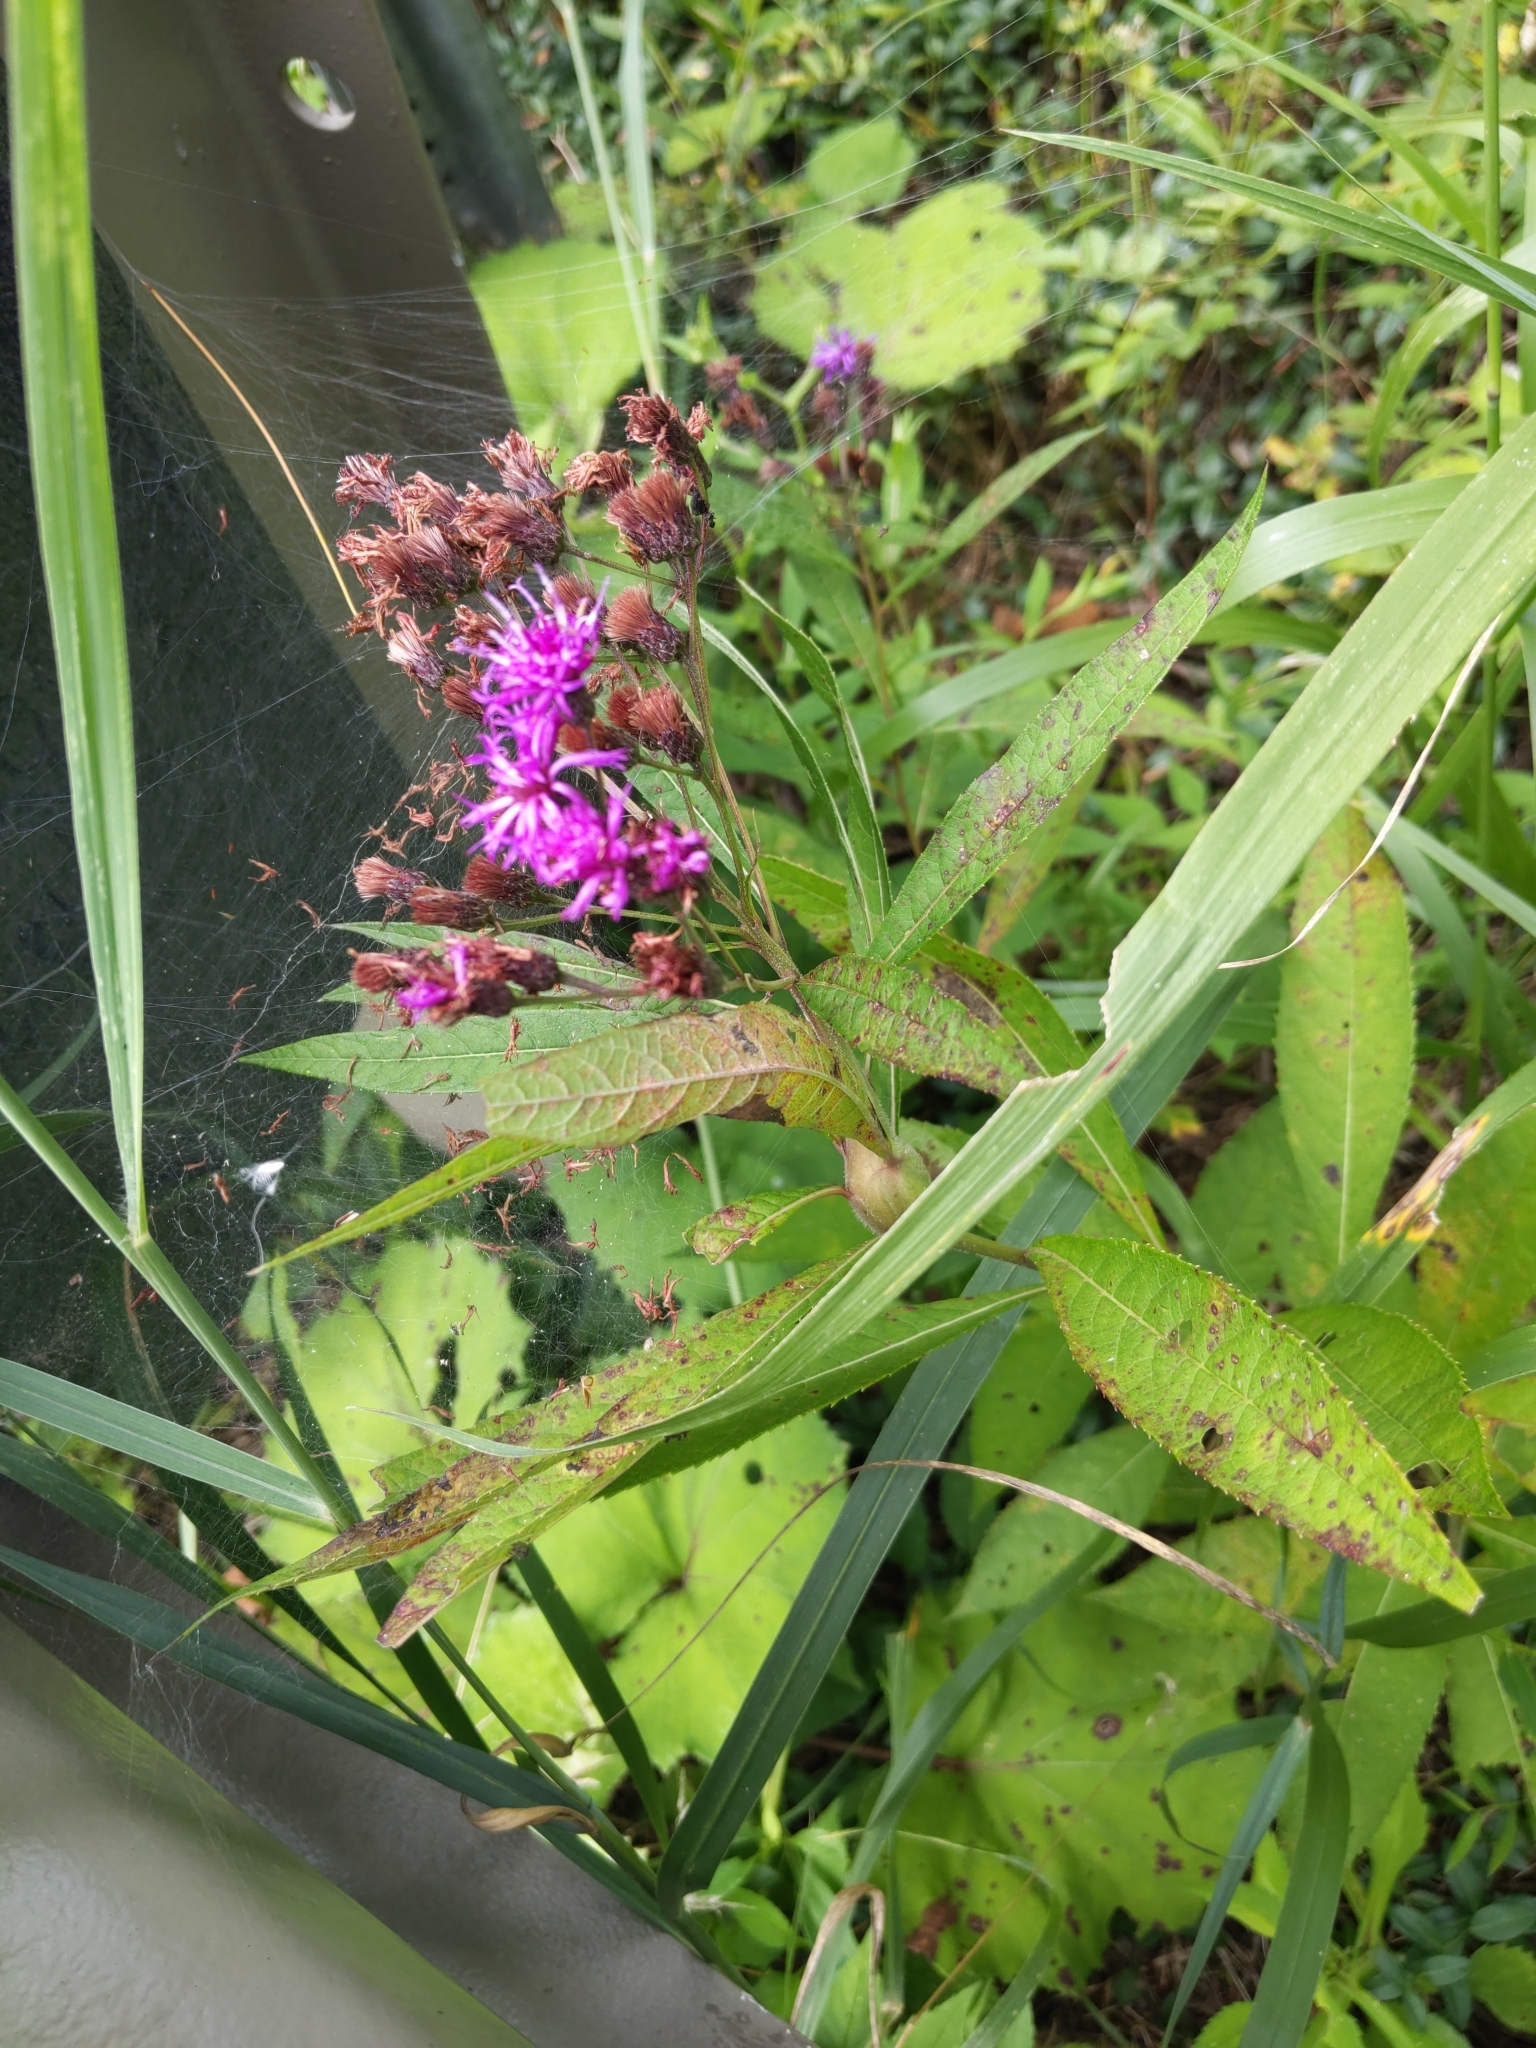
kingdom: Plantae
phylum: Tracheophyta
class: Magnoliopsida
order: Asterales
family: Asteraceae
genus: Vernonia
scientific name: Vernonia noveboracensis
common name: New york ironweed
